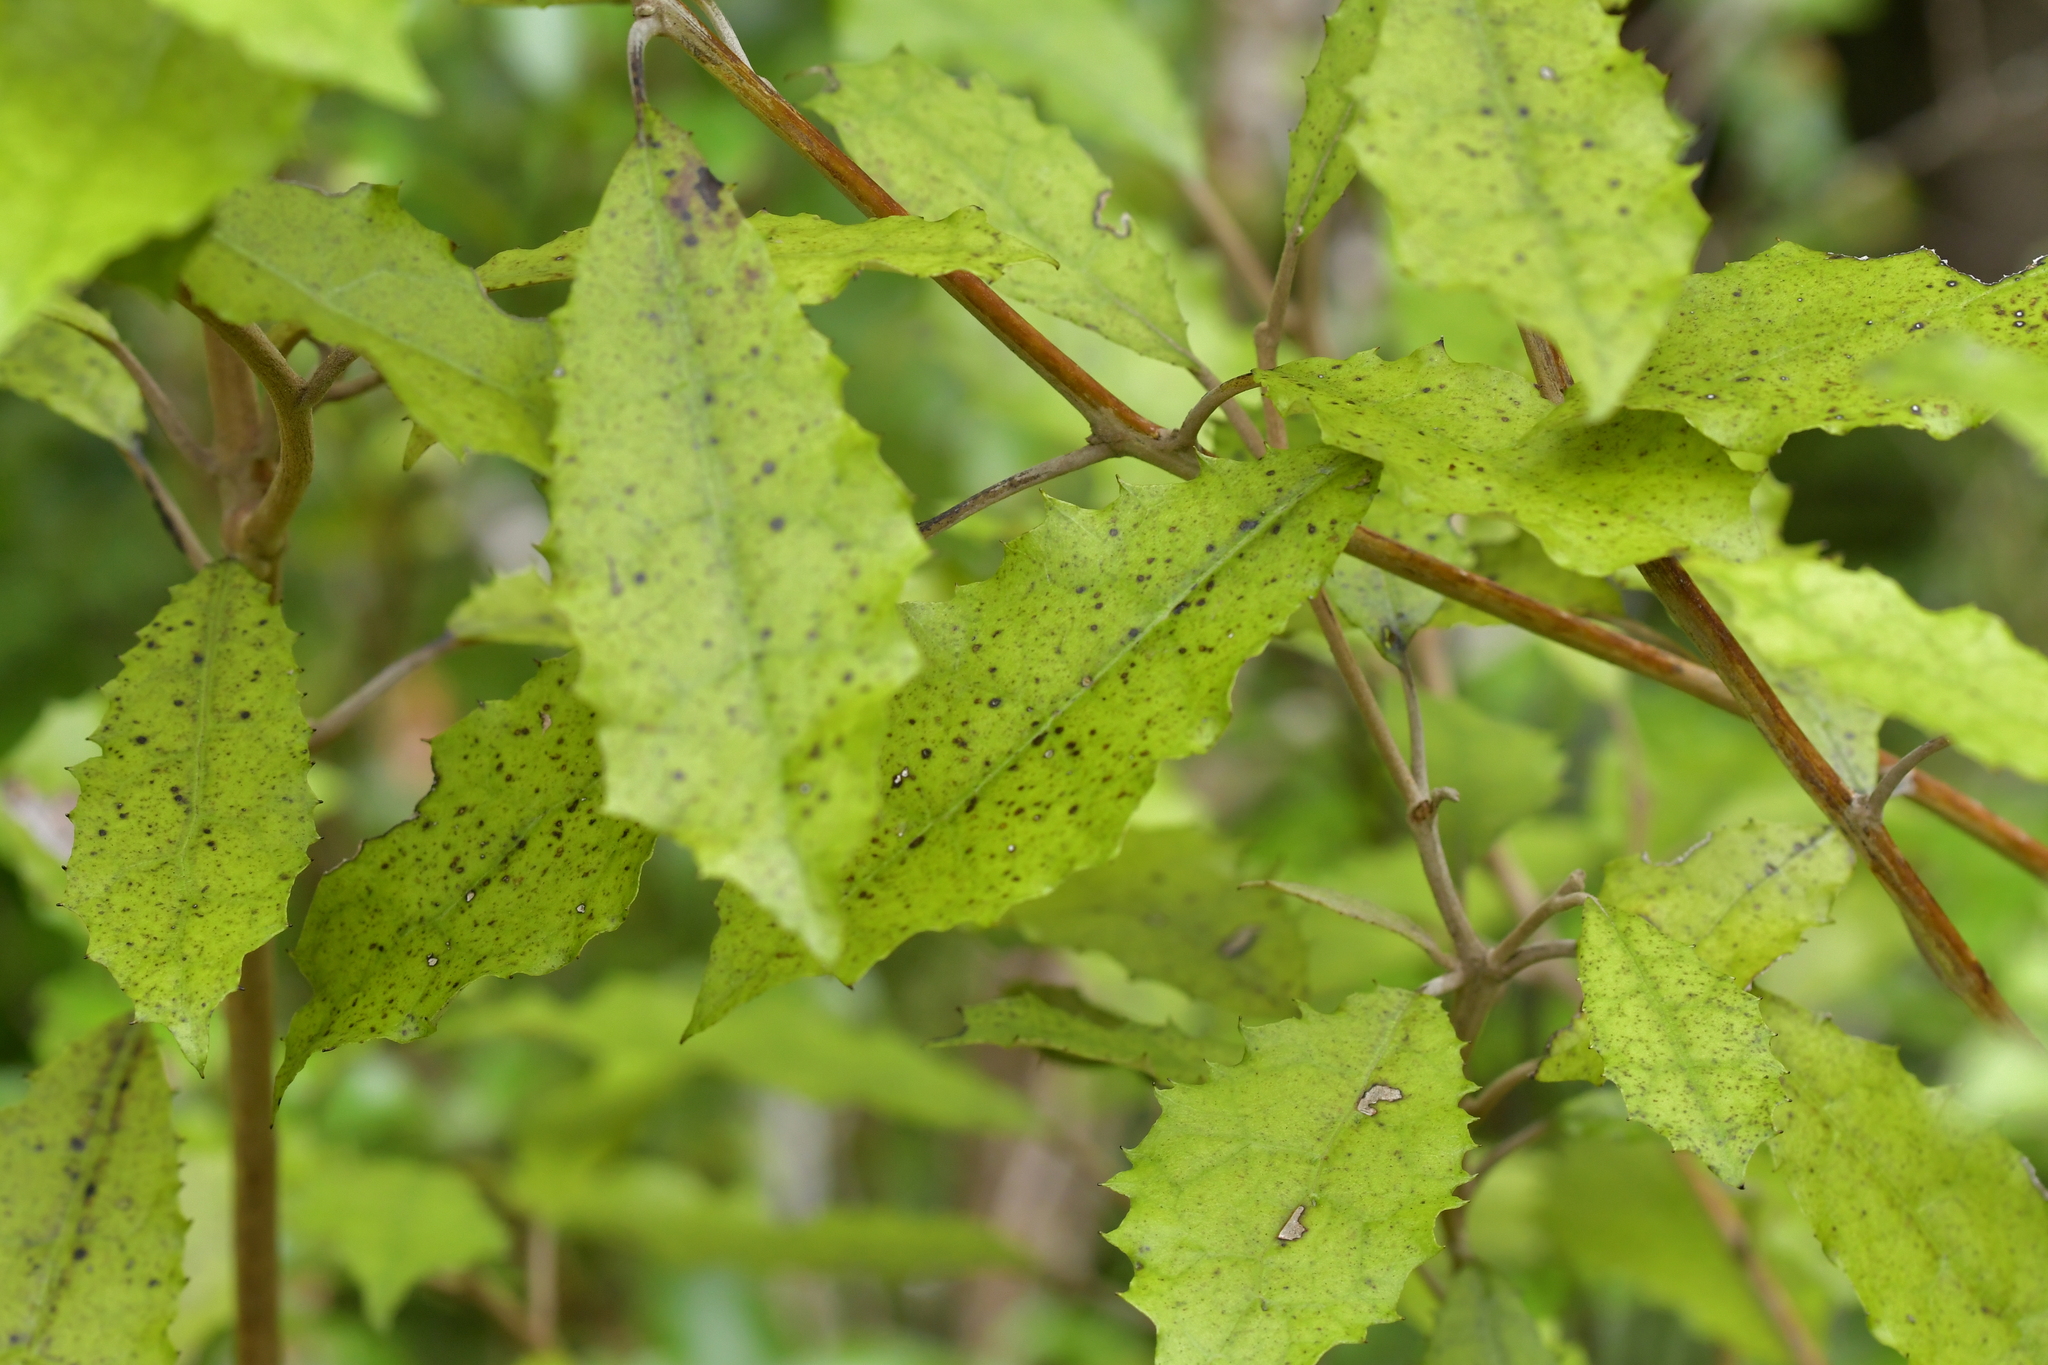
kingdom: Plantae
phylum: Tracheophyta
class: Magnoliopsida
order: Asterales
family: Asteraceae
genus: Olearia
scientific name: Olearia rani
